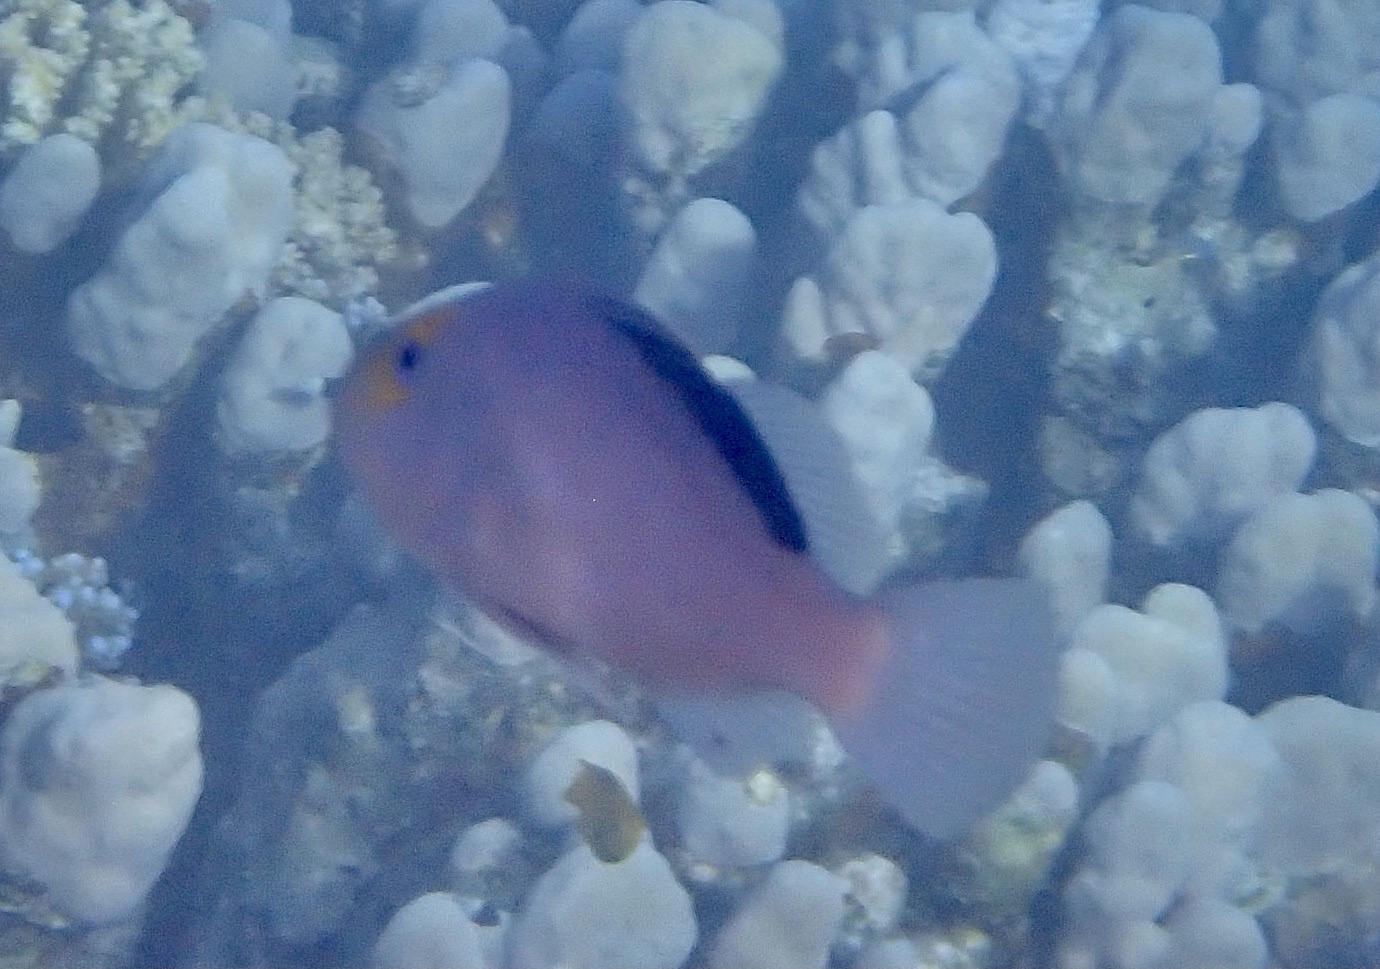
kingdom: Animalia
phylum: Chordata
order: Perciformes
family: Serranidae
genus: Diploprion
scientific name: Diploprion drachi
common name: Yellowface soapfish
